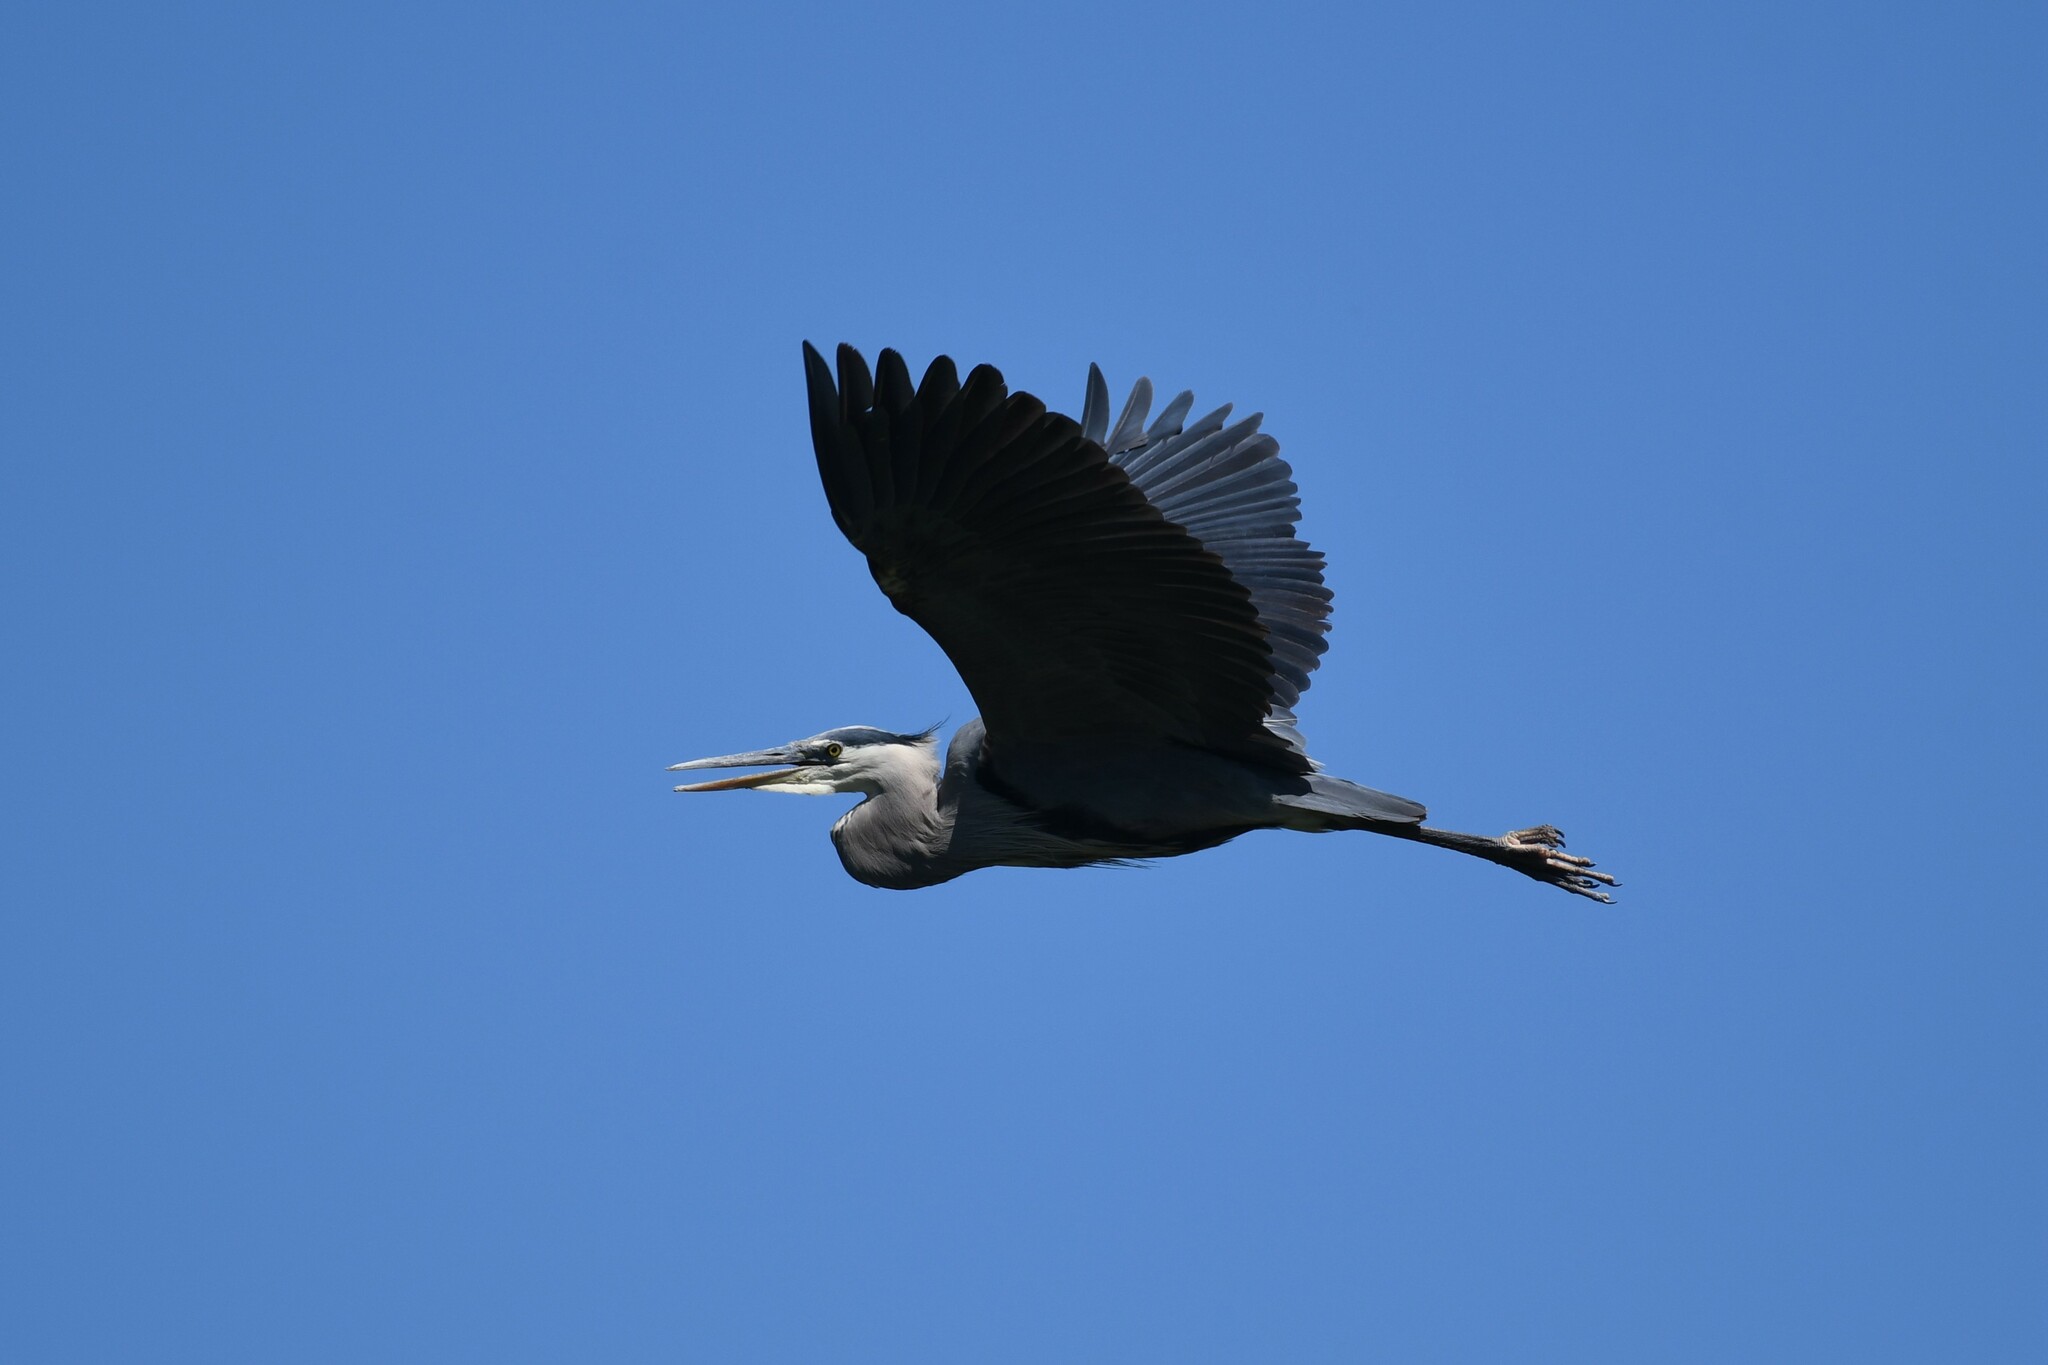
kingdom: Animalia
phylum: Chordata
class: Aves
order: Pelecaniformes
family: Ardeidae
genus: Ardea
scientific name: Ardea herodias
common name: Great blue heron
